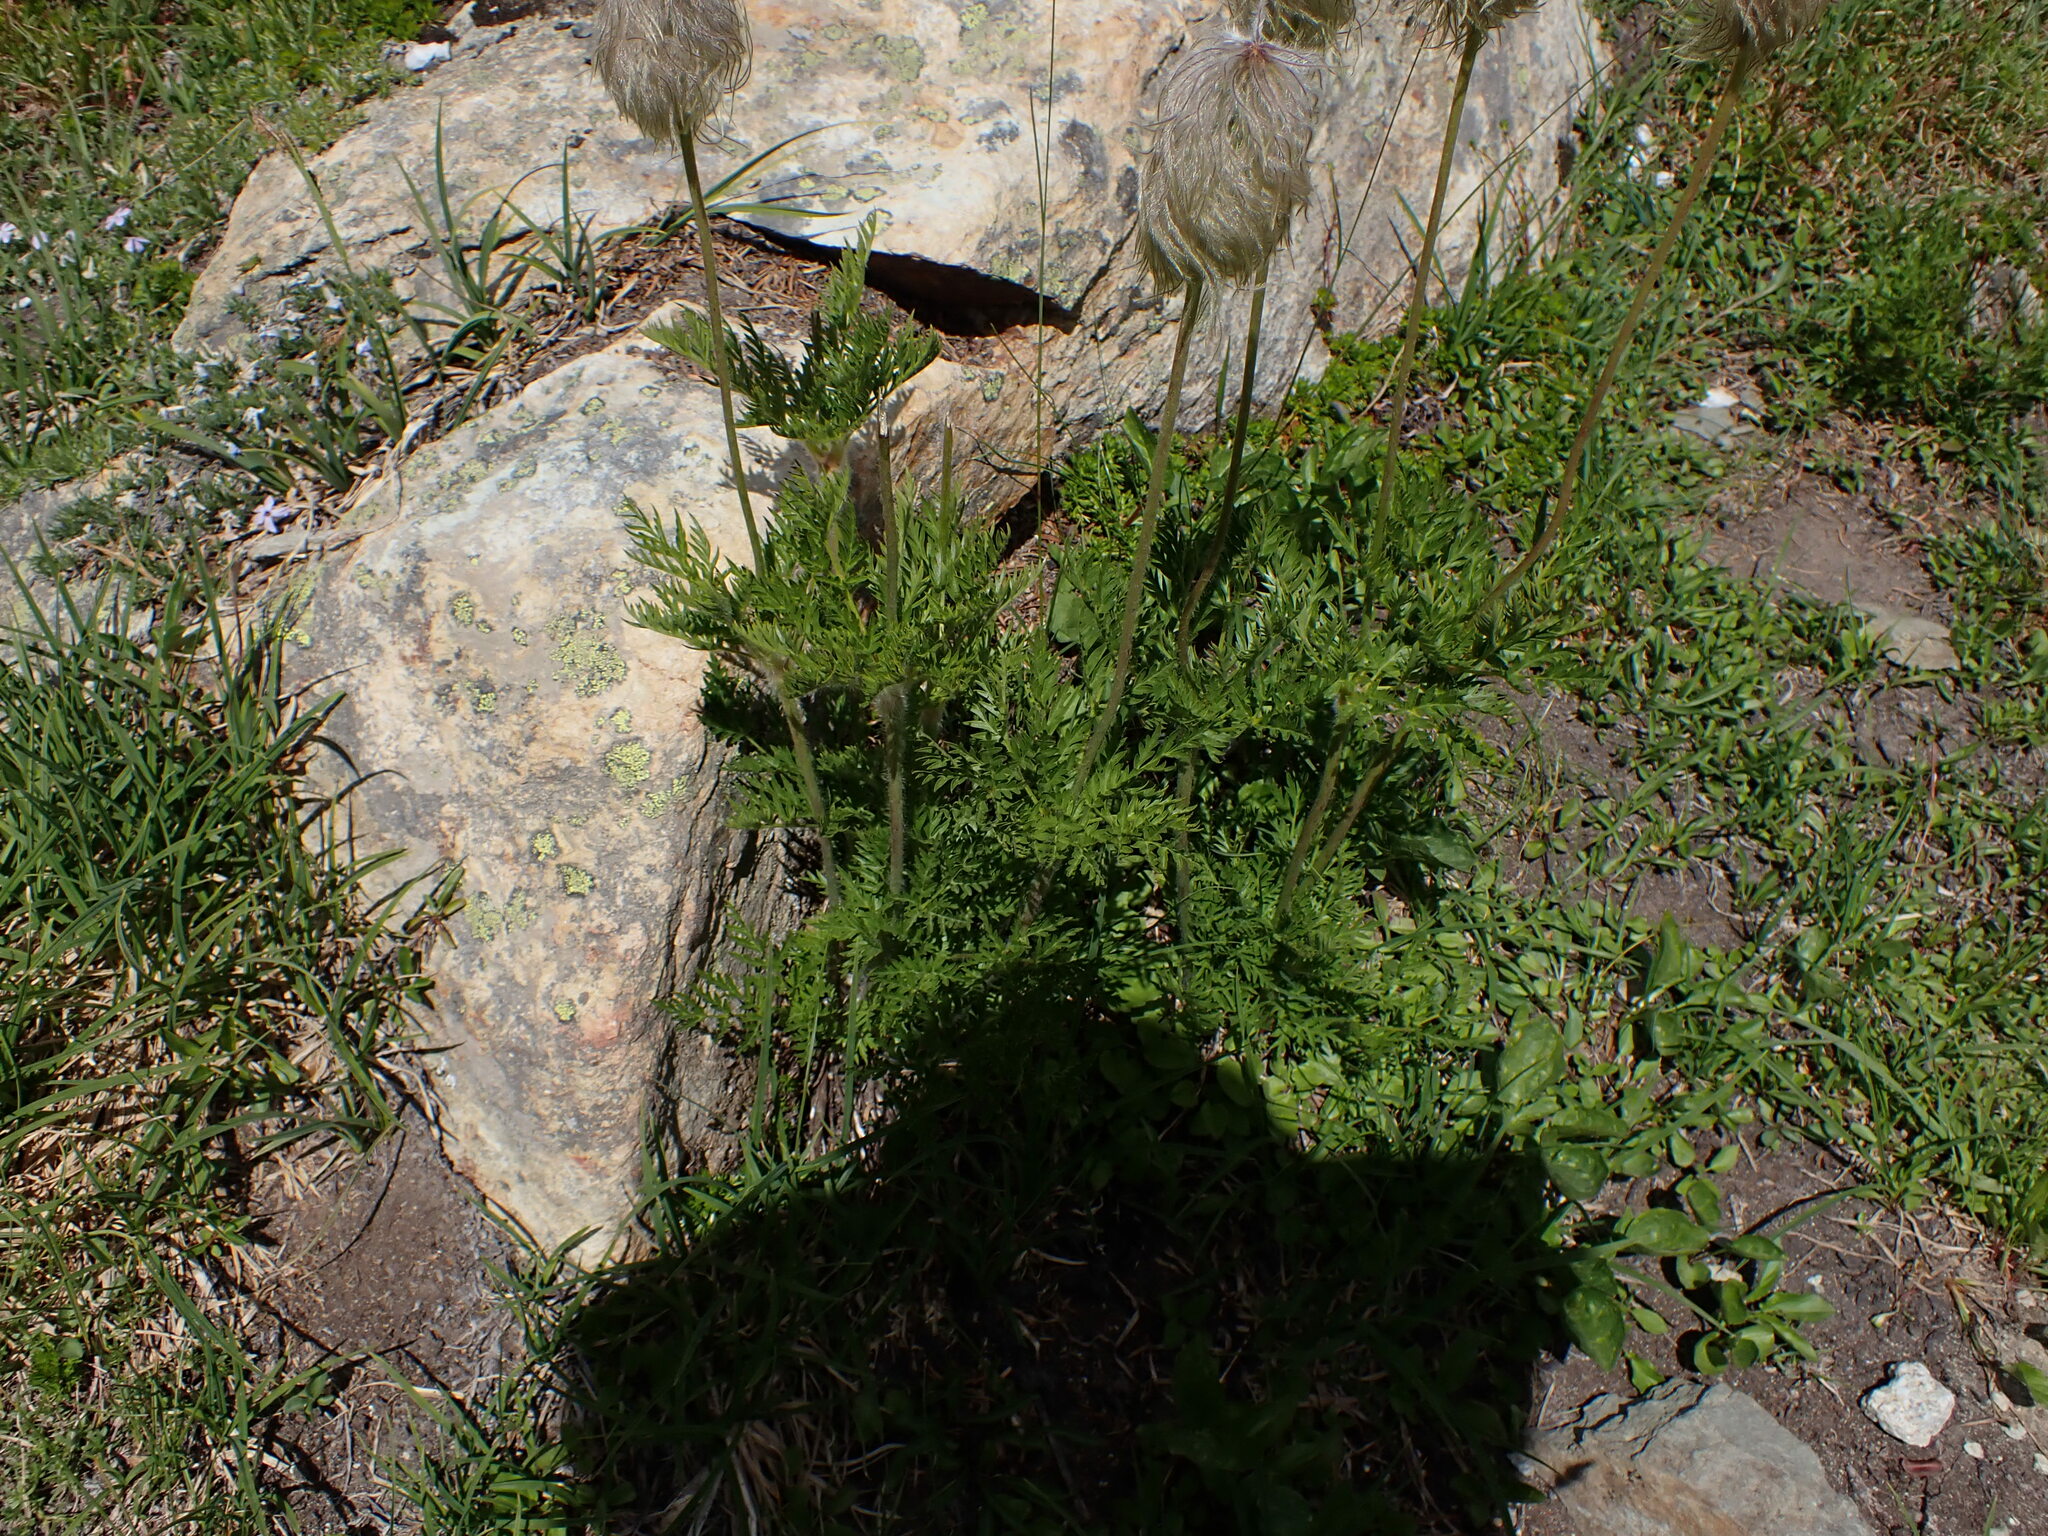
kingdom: Plantae
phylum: Tracheophyta
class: Magnoliopsida
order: Ranunculales
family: Ranunculaceae
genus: Pulsatilla
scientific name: Pulsatilla occidentalis
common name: Mountain pasqueflower
